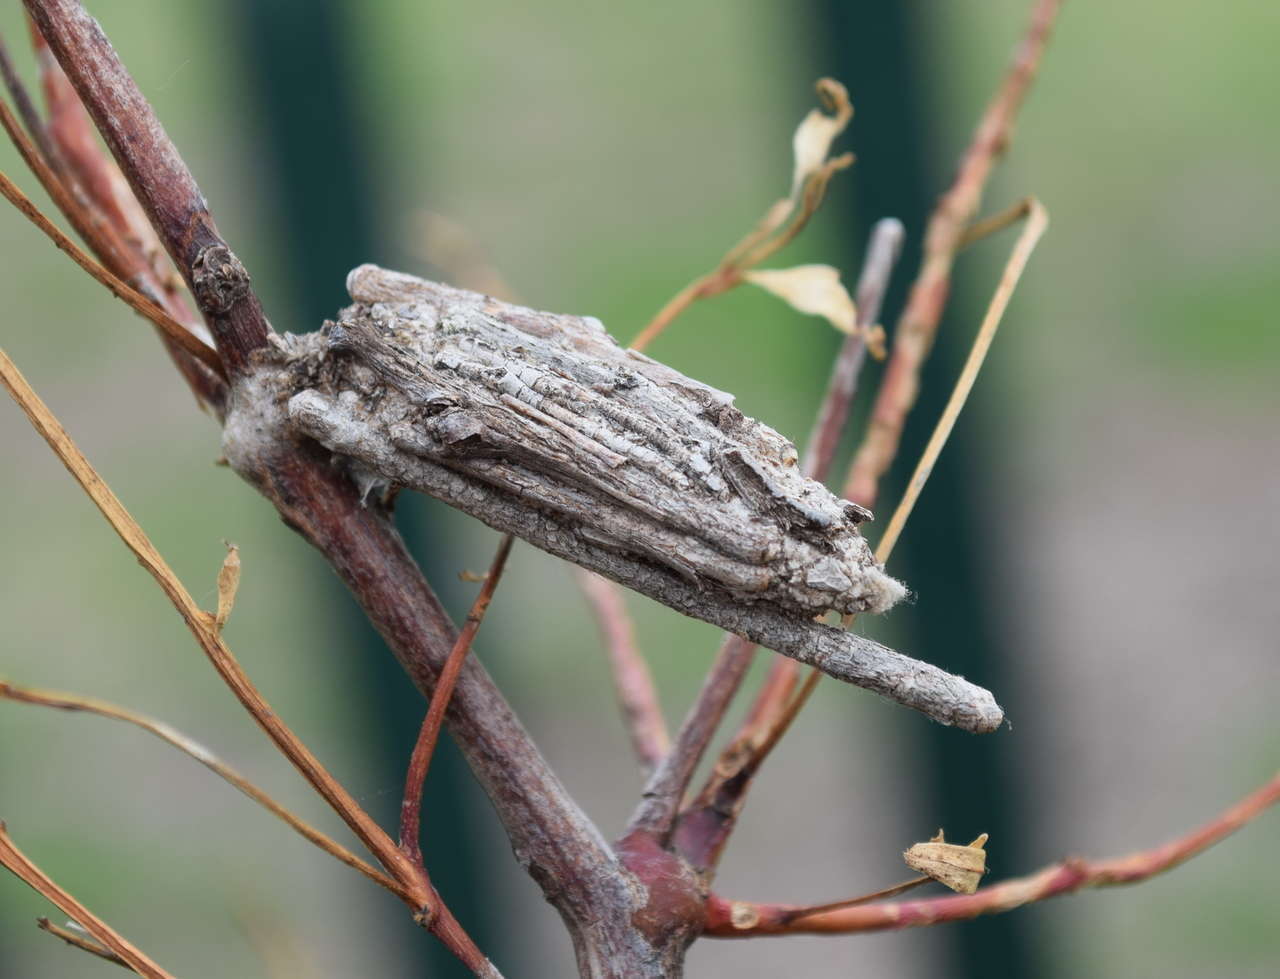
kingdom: Animalia
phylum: Arthropoda
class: Insecta
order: Lepidoptera
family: Psychidae
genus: Clania
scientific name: Clania ignobilis
